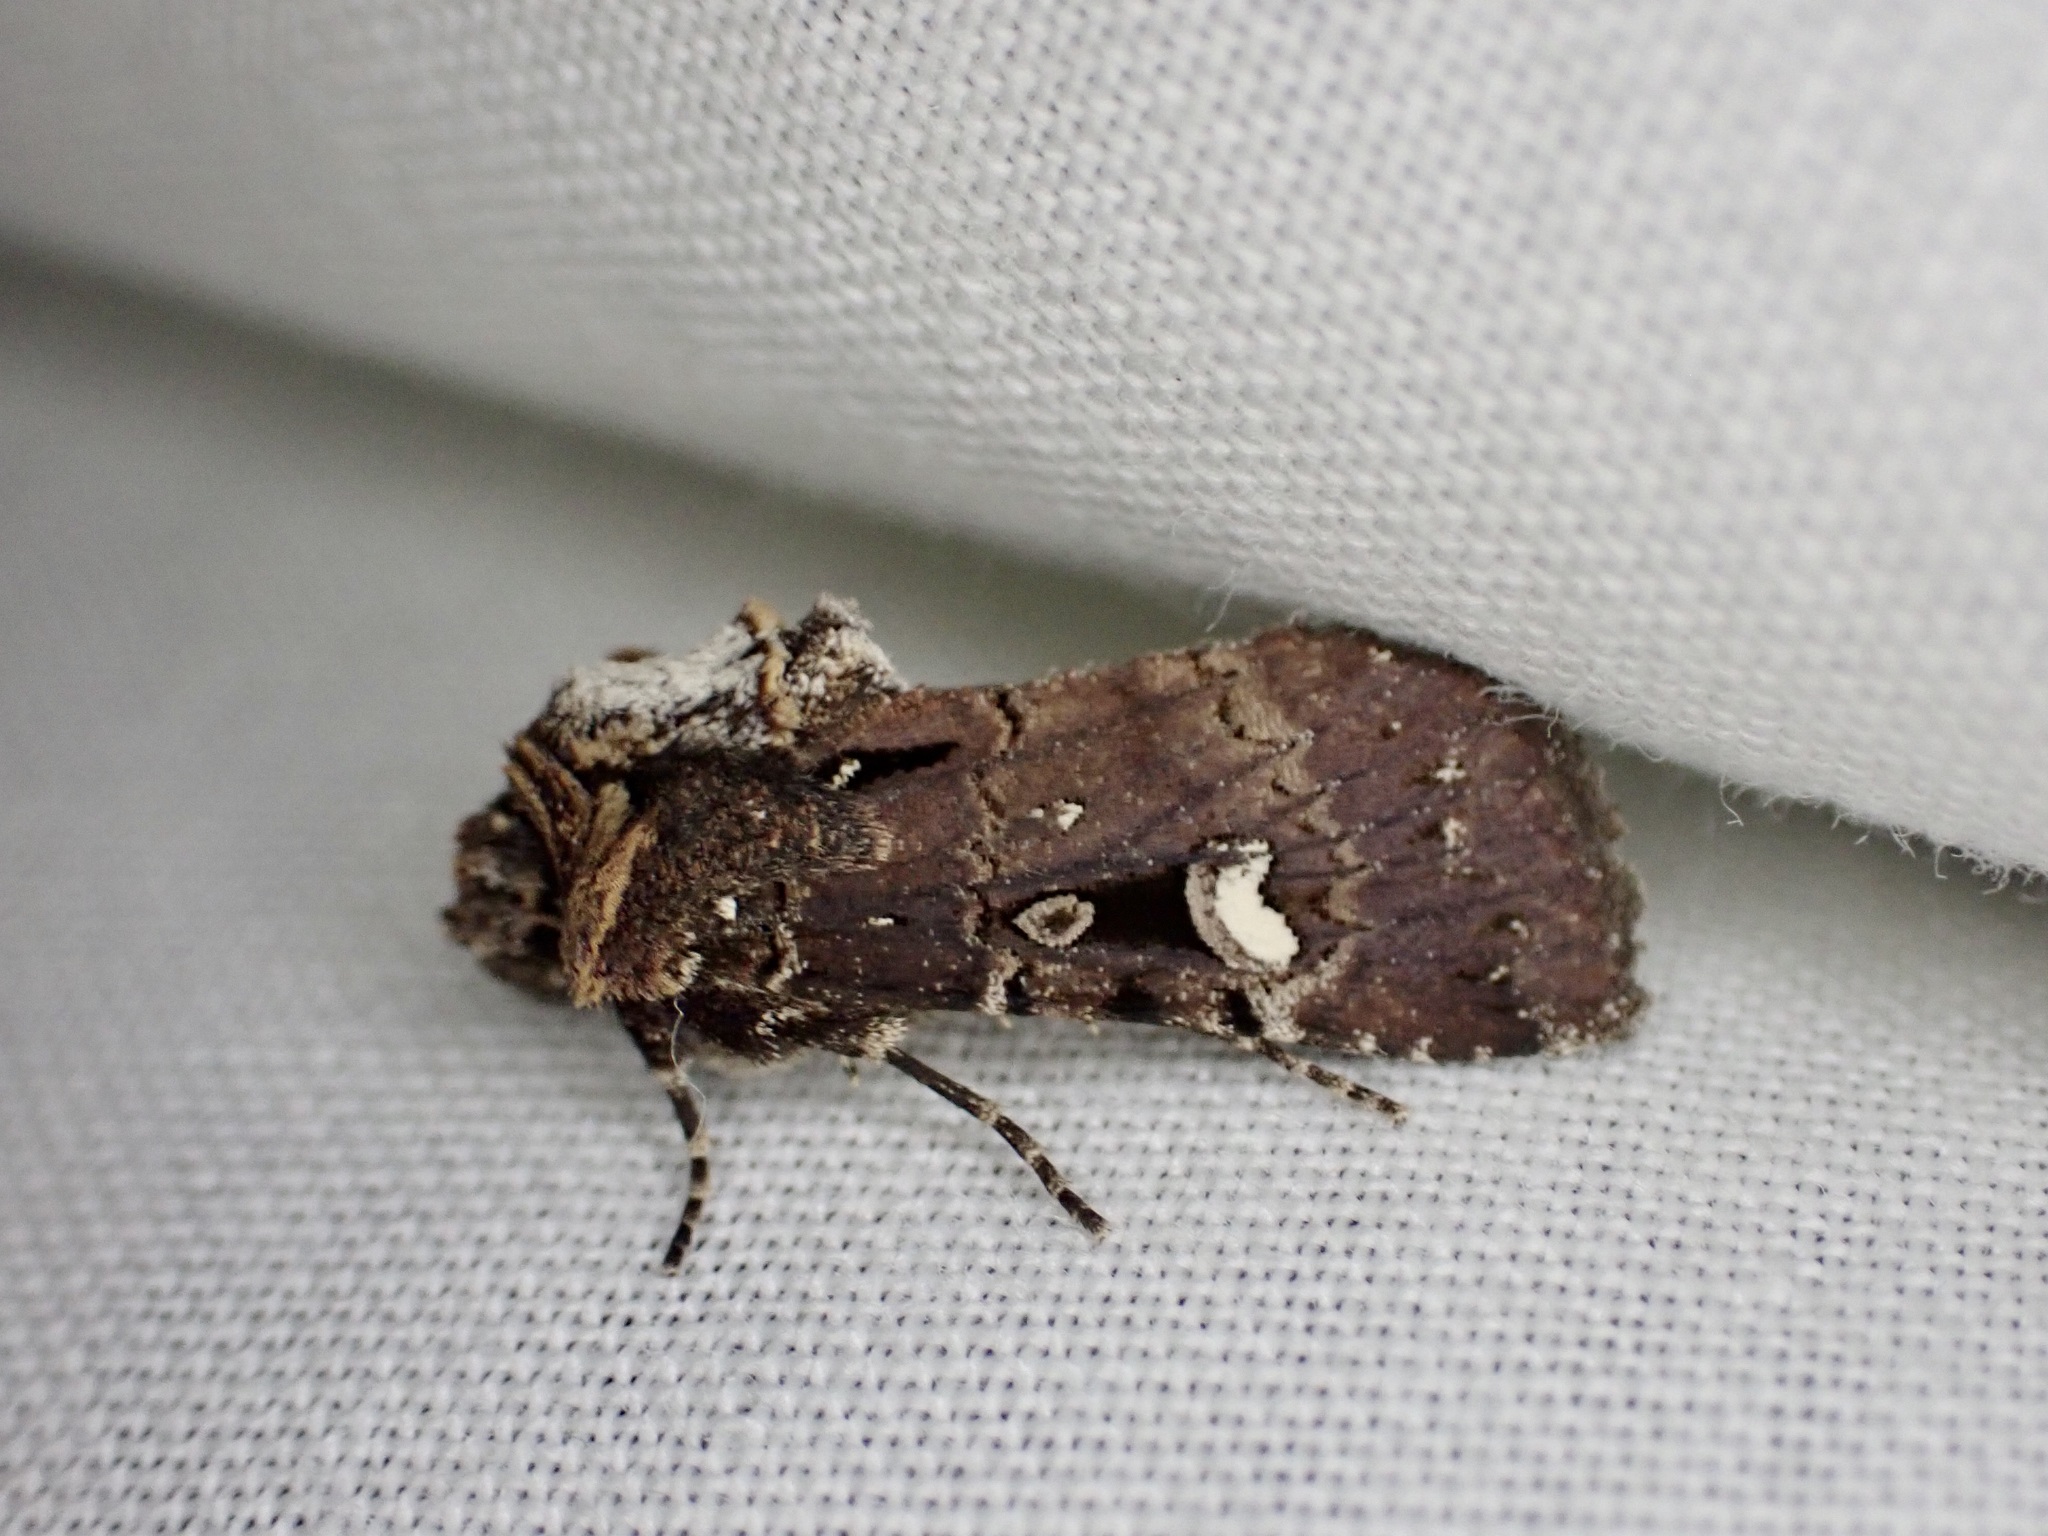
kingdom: Animalia
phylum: Arthropoda
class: Insecta
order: Lepidoptera
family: Noctuidae
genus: Austramathes
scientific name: Austramathes
